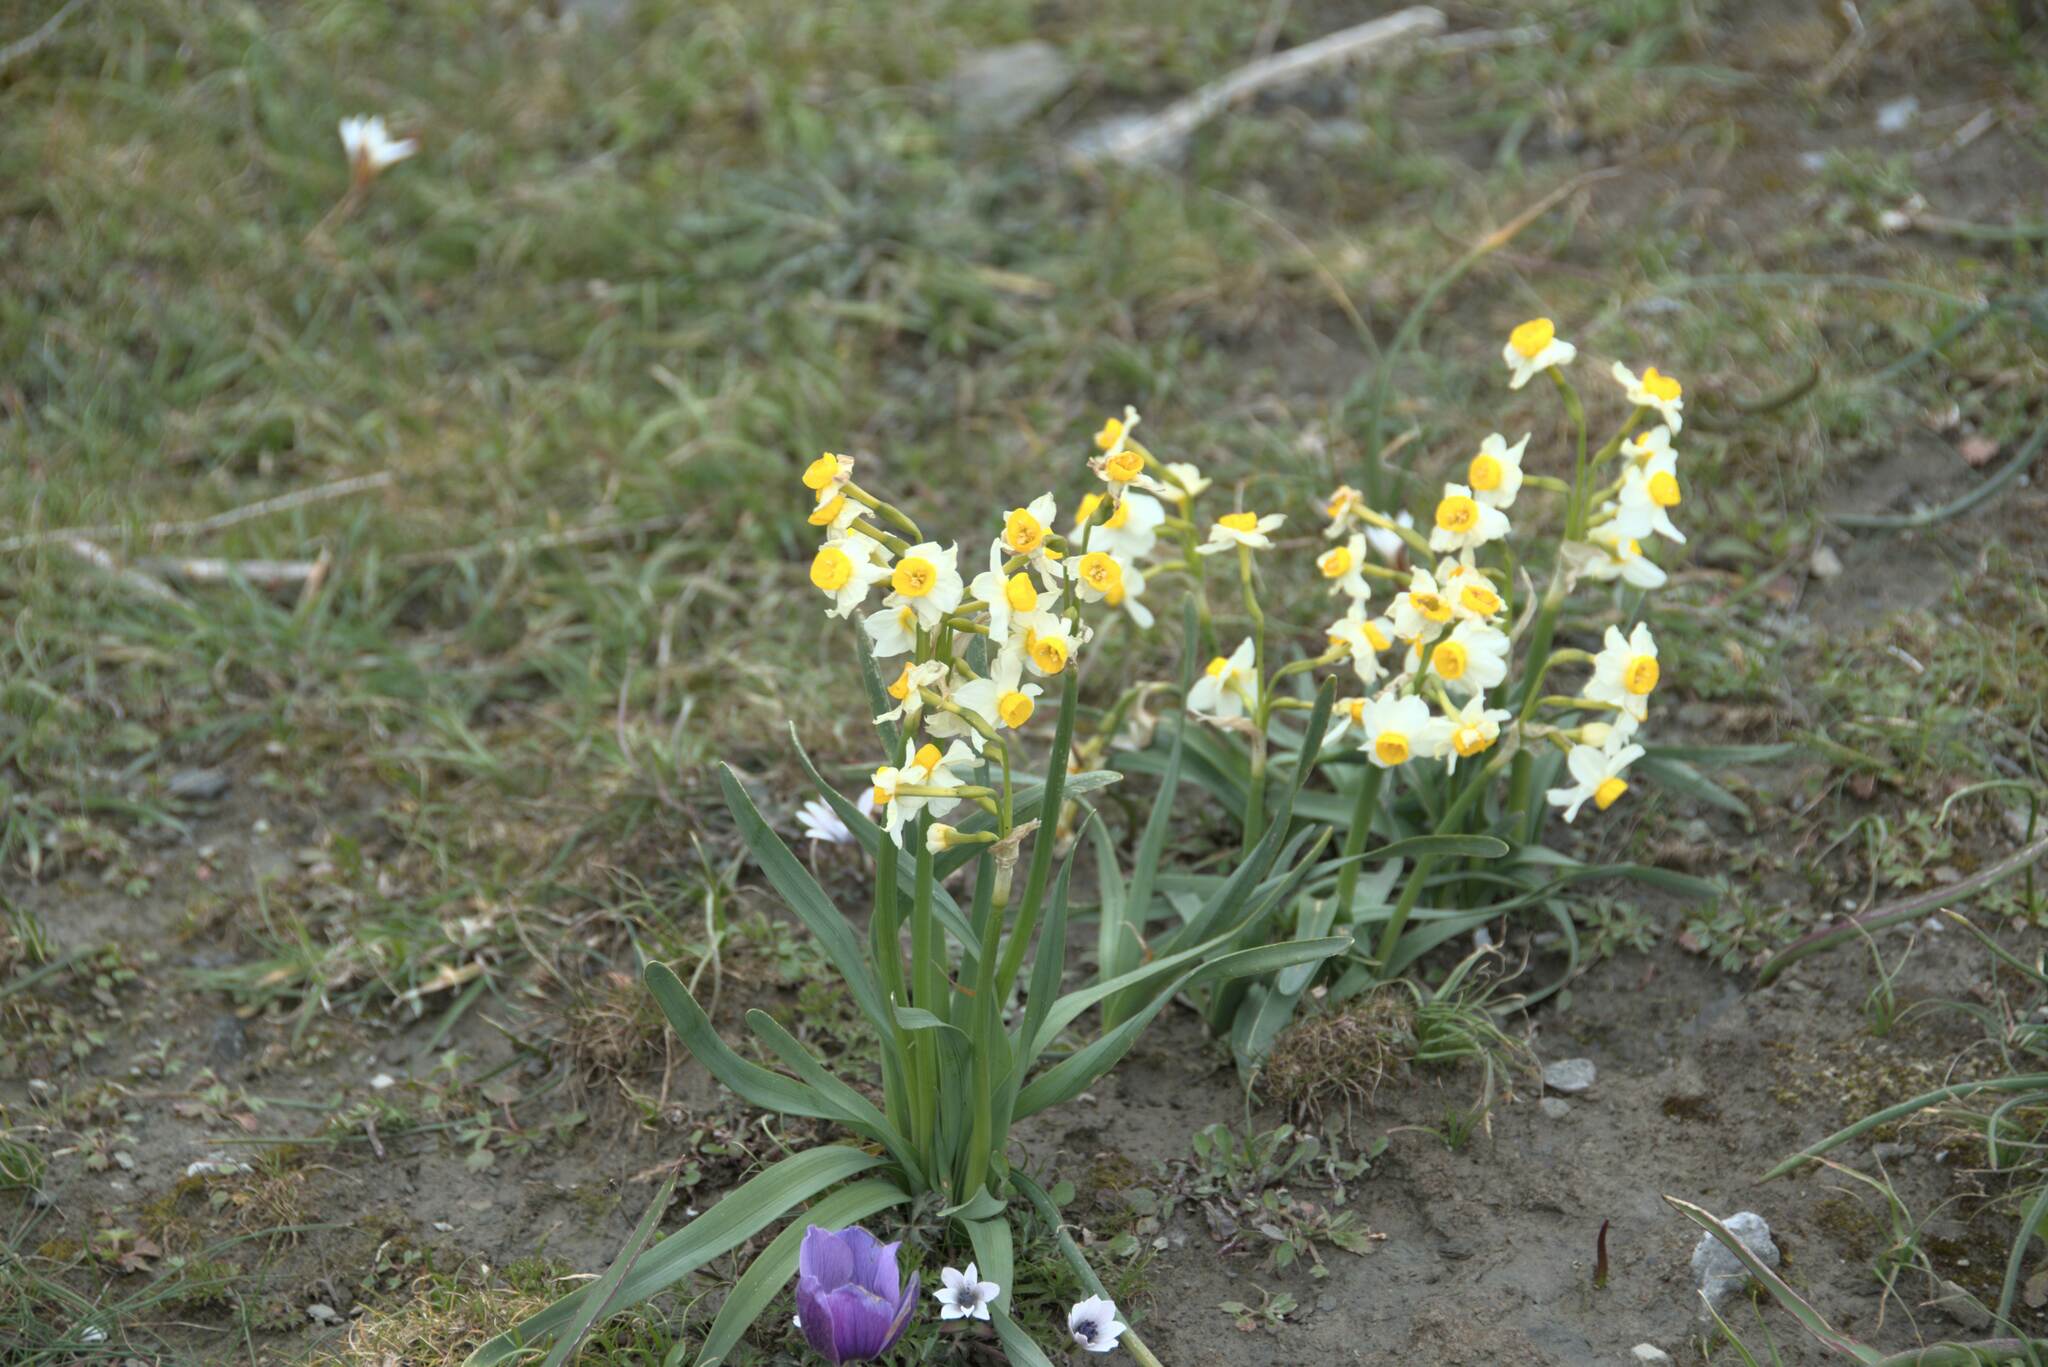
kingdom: Plantae
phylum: Tracheophyta
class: Liliopsida
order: Asparagales
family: Amaryllidaceae
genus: Narcissus
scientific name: Narcissus tazetta
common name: Bunch-flowered daffodil
